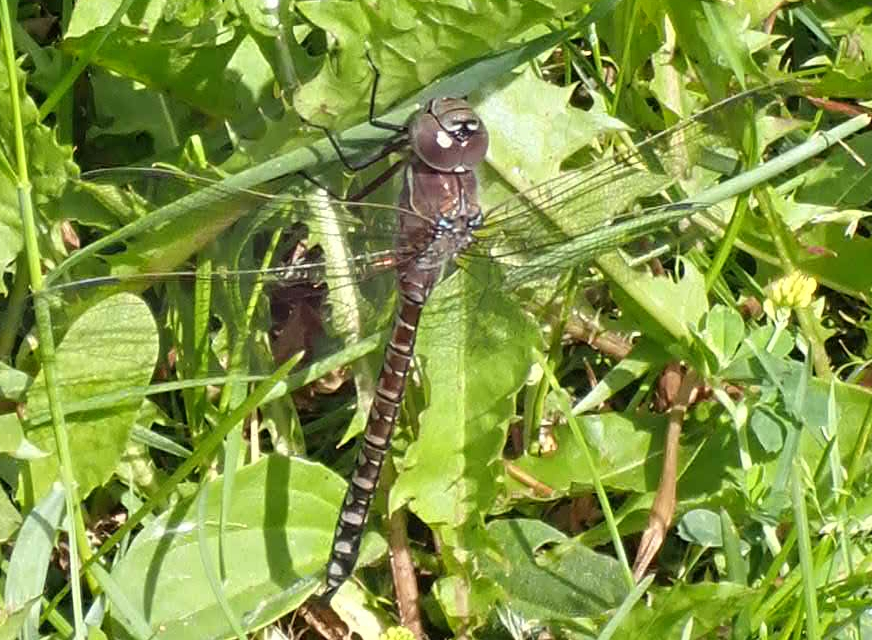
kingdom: Animalia
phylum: Arthropoda
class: Insecta
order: Odonata
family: Aeshnidae
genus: Aeshna
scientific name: Aeshna interrupta
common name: Variable darner
